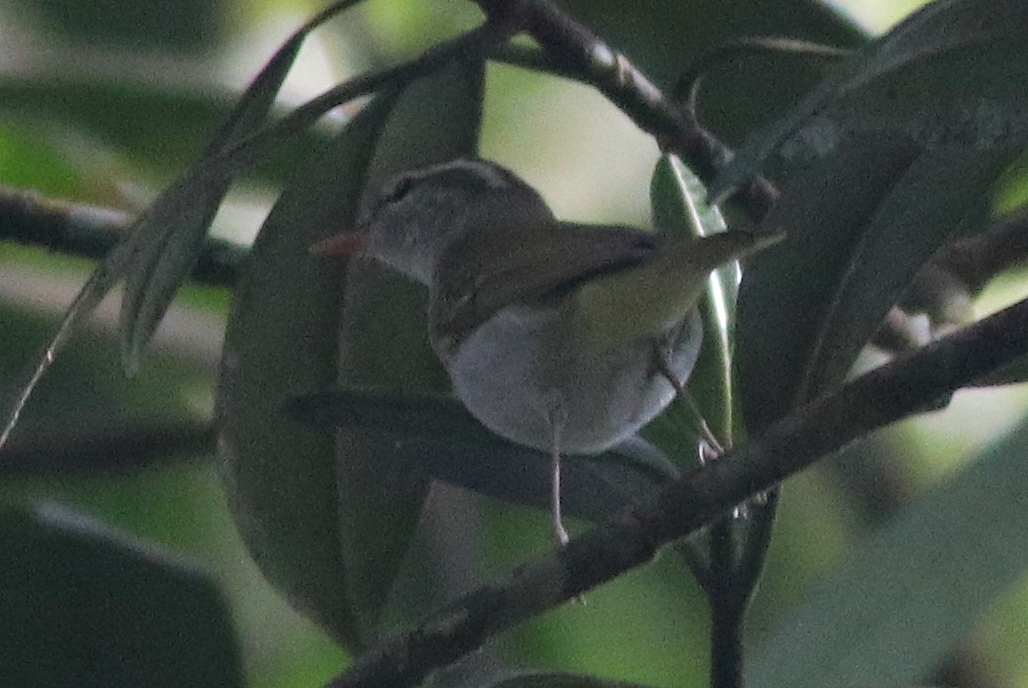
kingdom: Animalia
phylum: Chordata
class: Aves
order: Passeriformes
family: Phylloscopidae
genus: Phylloscopus
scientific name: Phylloscopus coronatus
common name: Eastern crowned warbler
